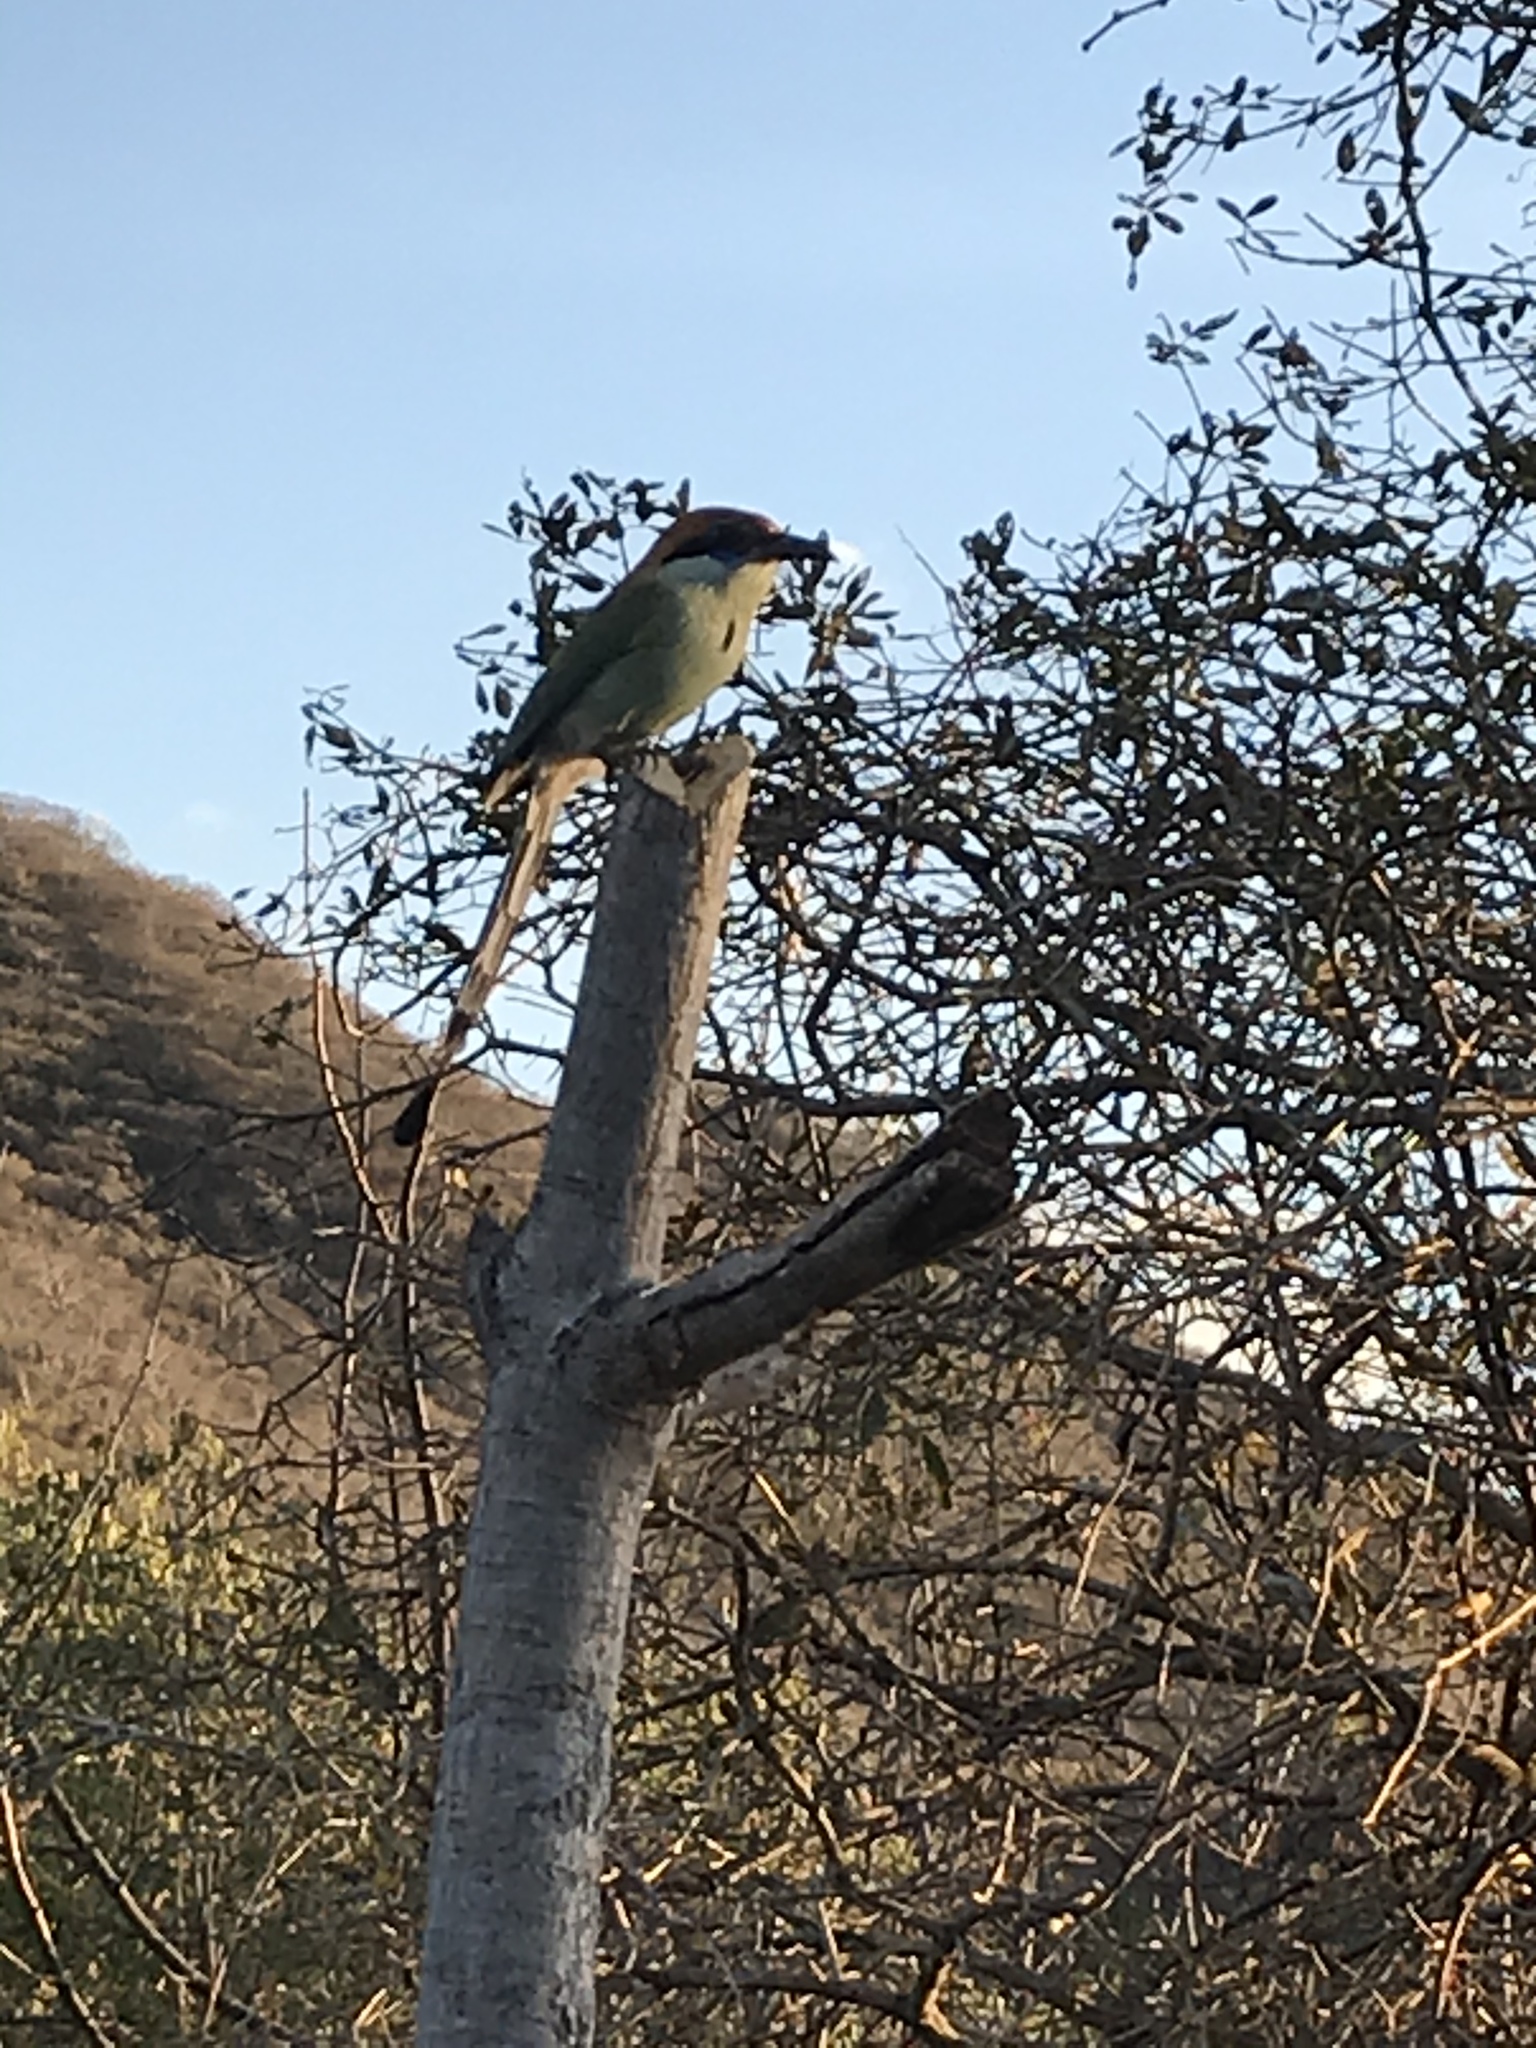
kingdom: Animalia
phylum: Chordata
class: Aves
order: Coraciiformes
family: Momotidae
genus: Momotus
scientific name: Momotus mexicanus
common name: Russet-crowned motmot
